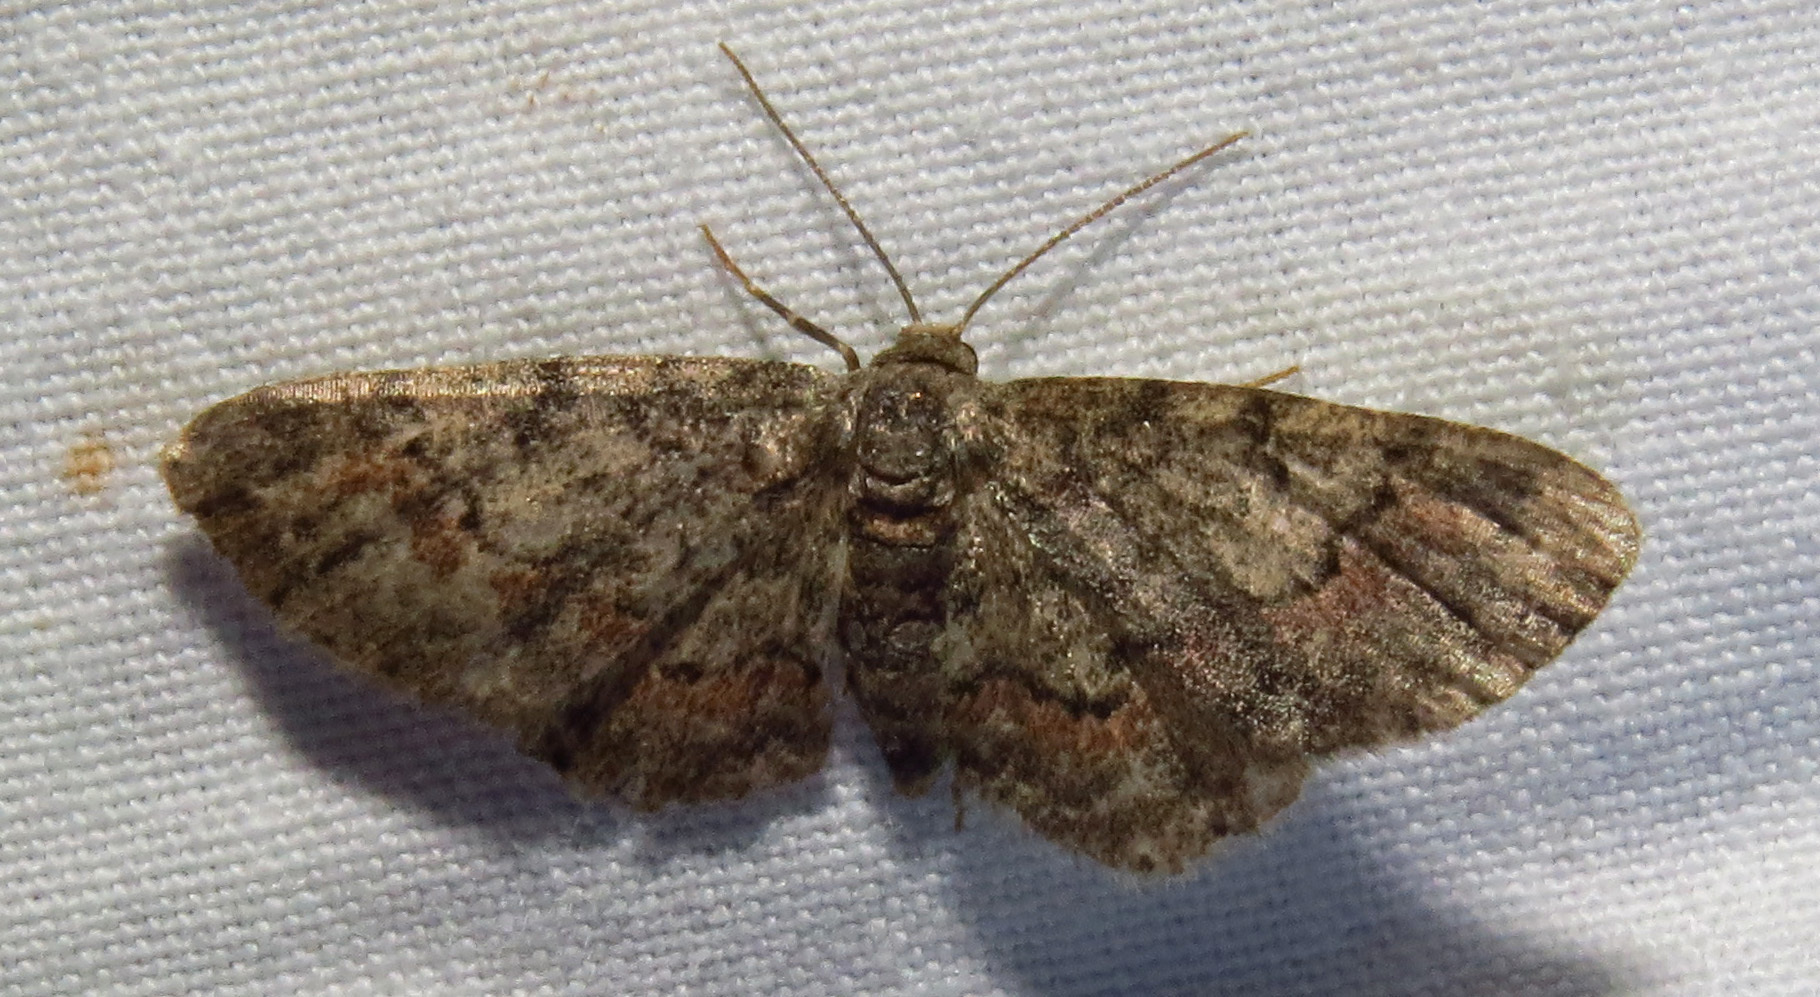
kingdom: Animalia
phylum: Arthropoda
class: Insecta
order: Lepidoptera
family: Geometridae
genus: Glenoides
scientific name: Glenoides texanaria
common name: Texas gray
